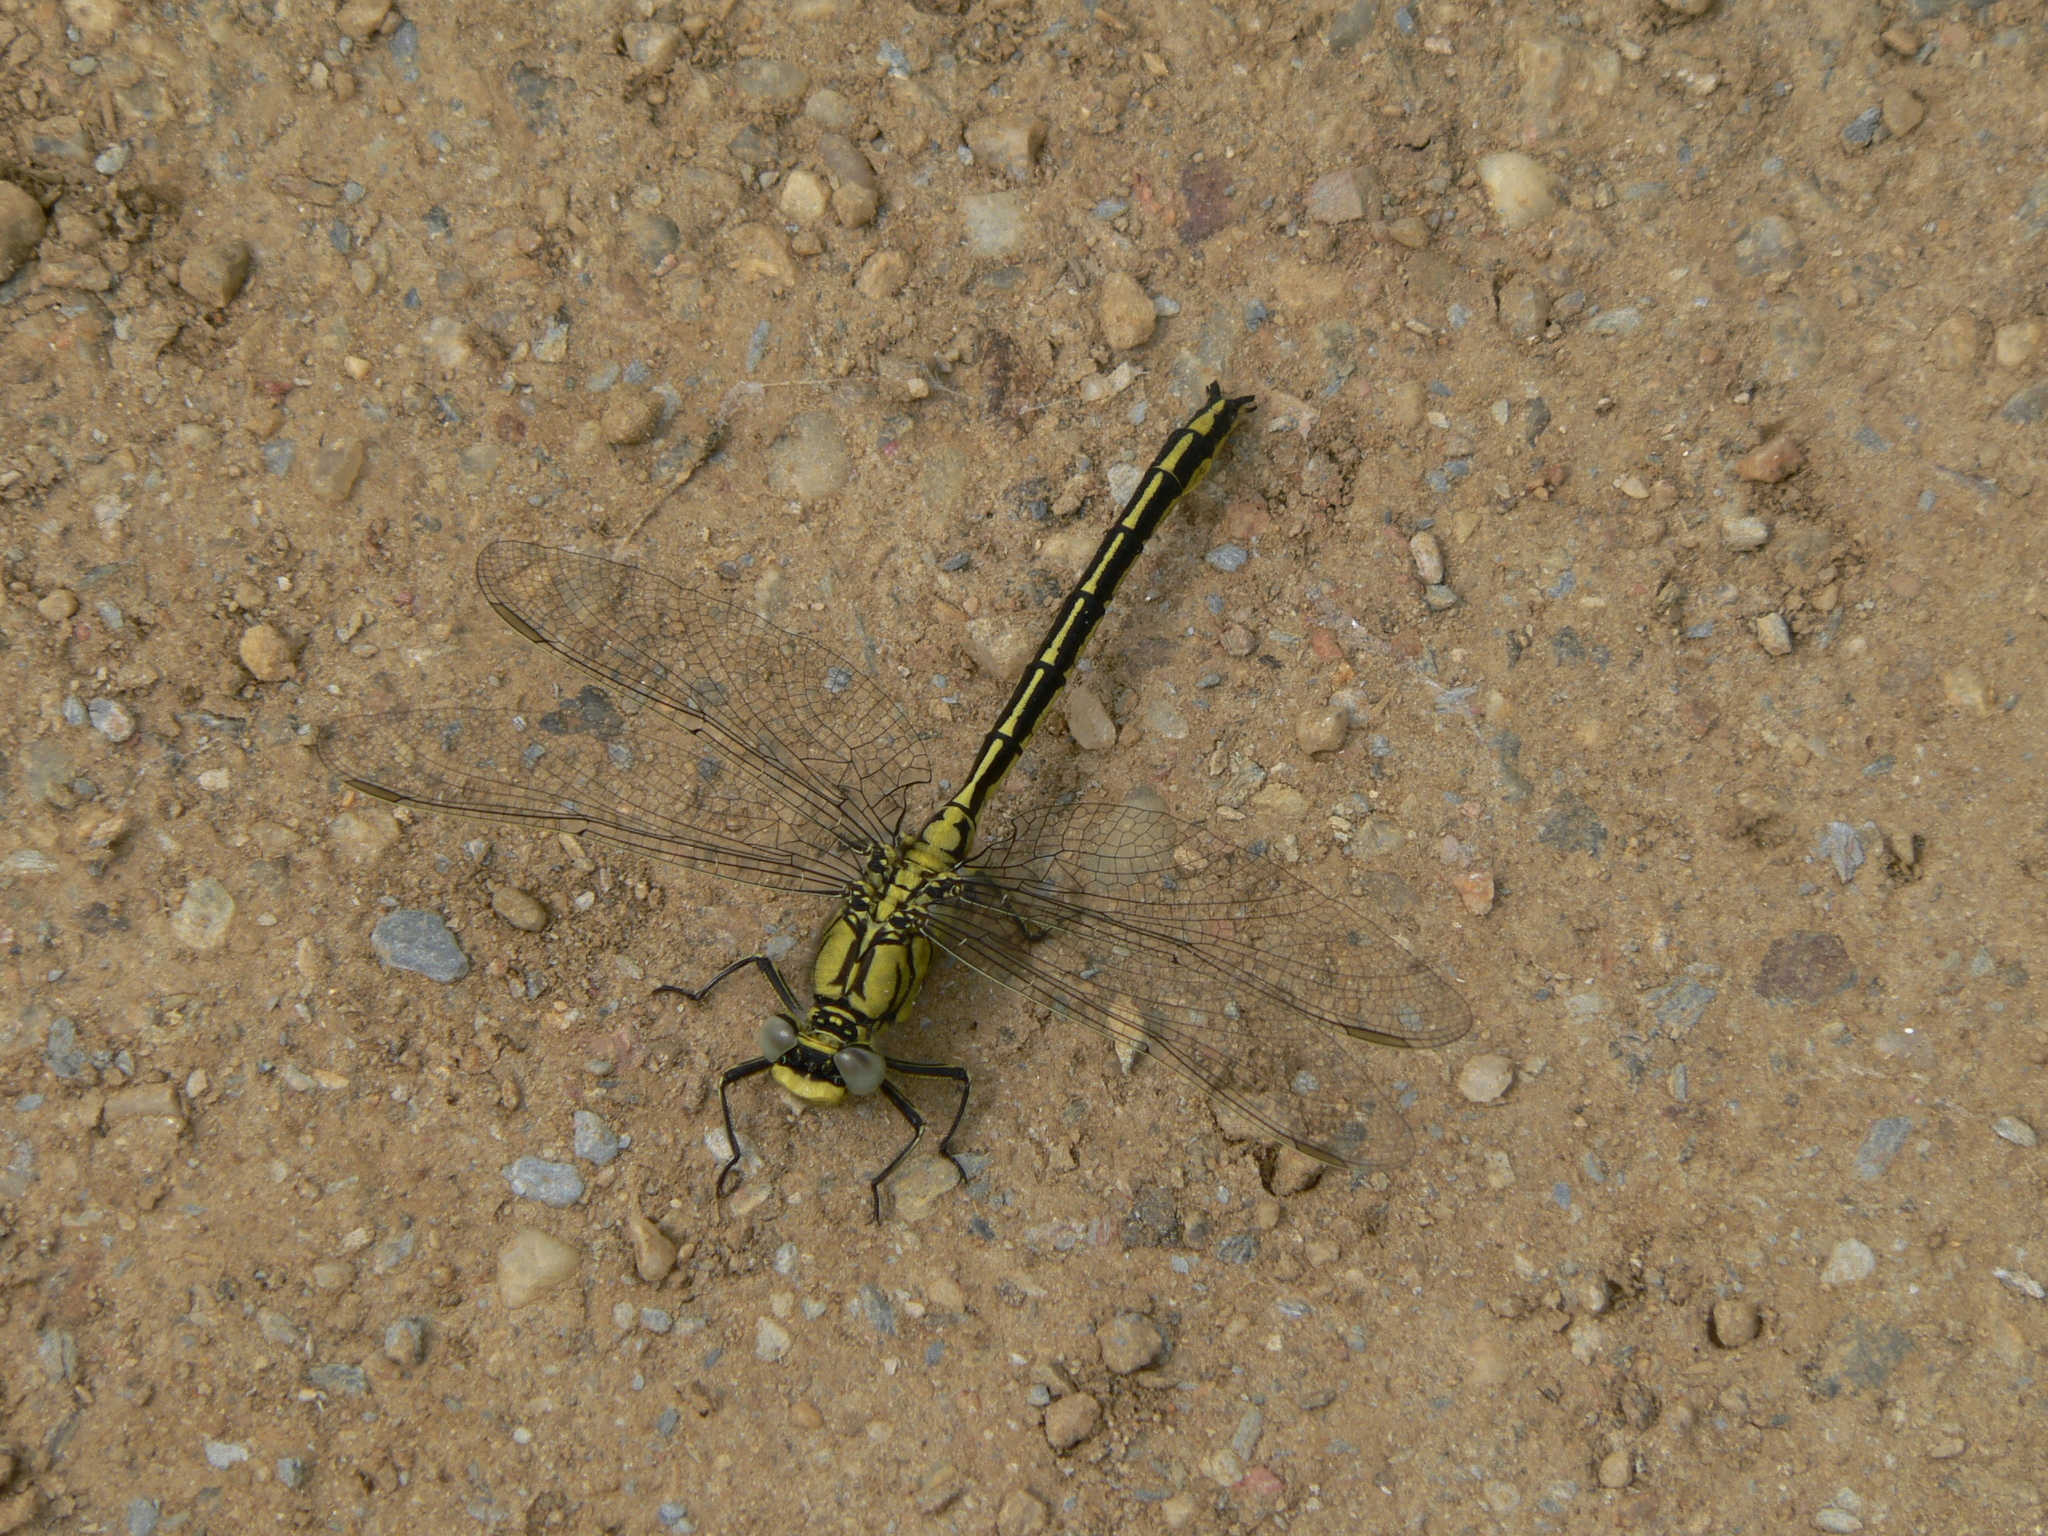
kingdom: Animalia
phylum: Arthropoda
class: Insecta
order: Odonata
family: Gomphidae
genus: Gomphus
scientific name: Gomphus pulchellus
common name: Western clubtail
